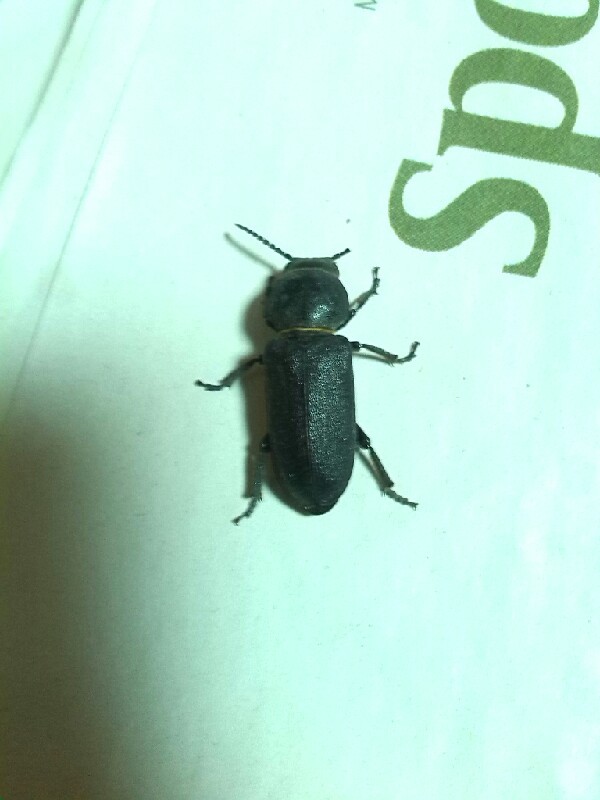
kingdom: Animalia
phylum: Arthropoda
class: Insecta
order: Coleoptera
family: Cerambycidae
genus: Spondylis
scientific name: Spondylis buprestoides
